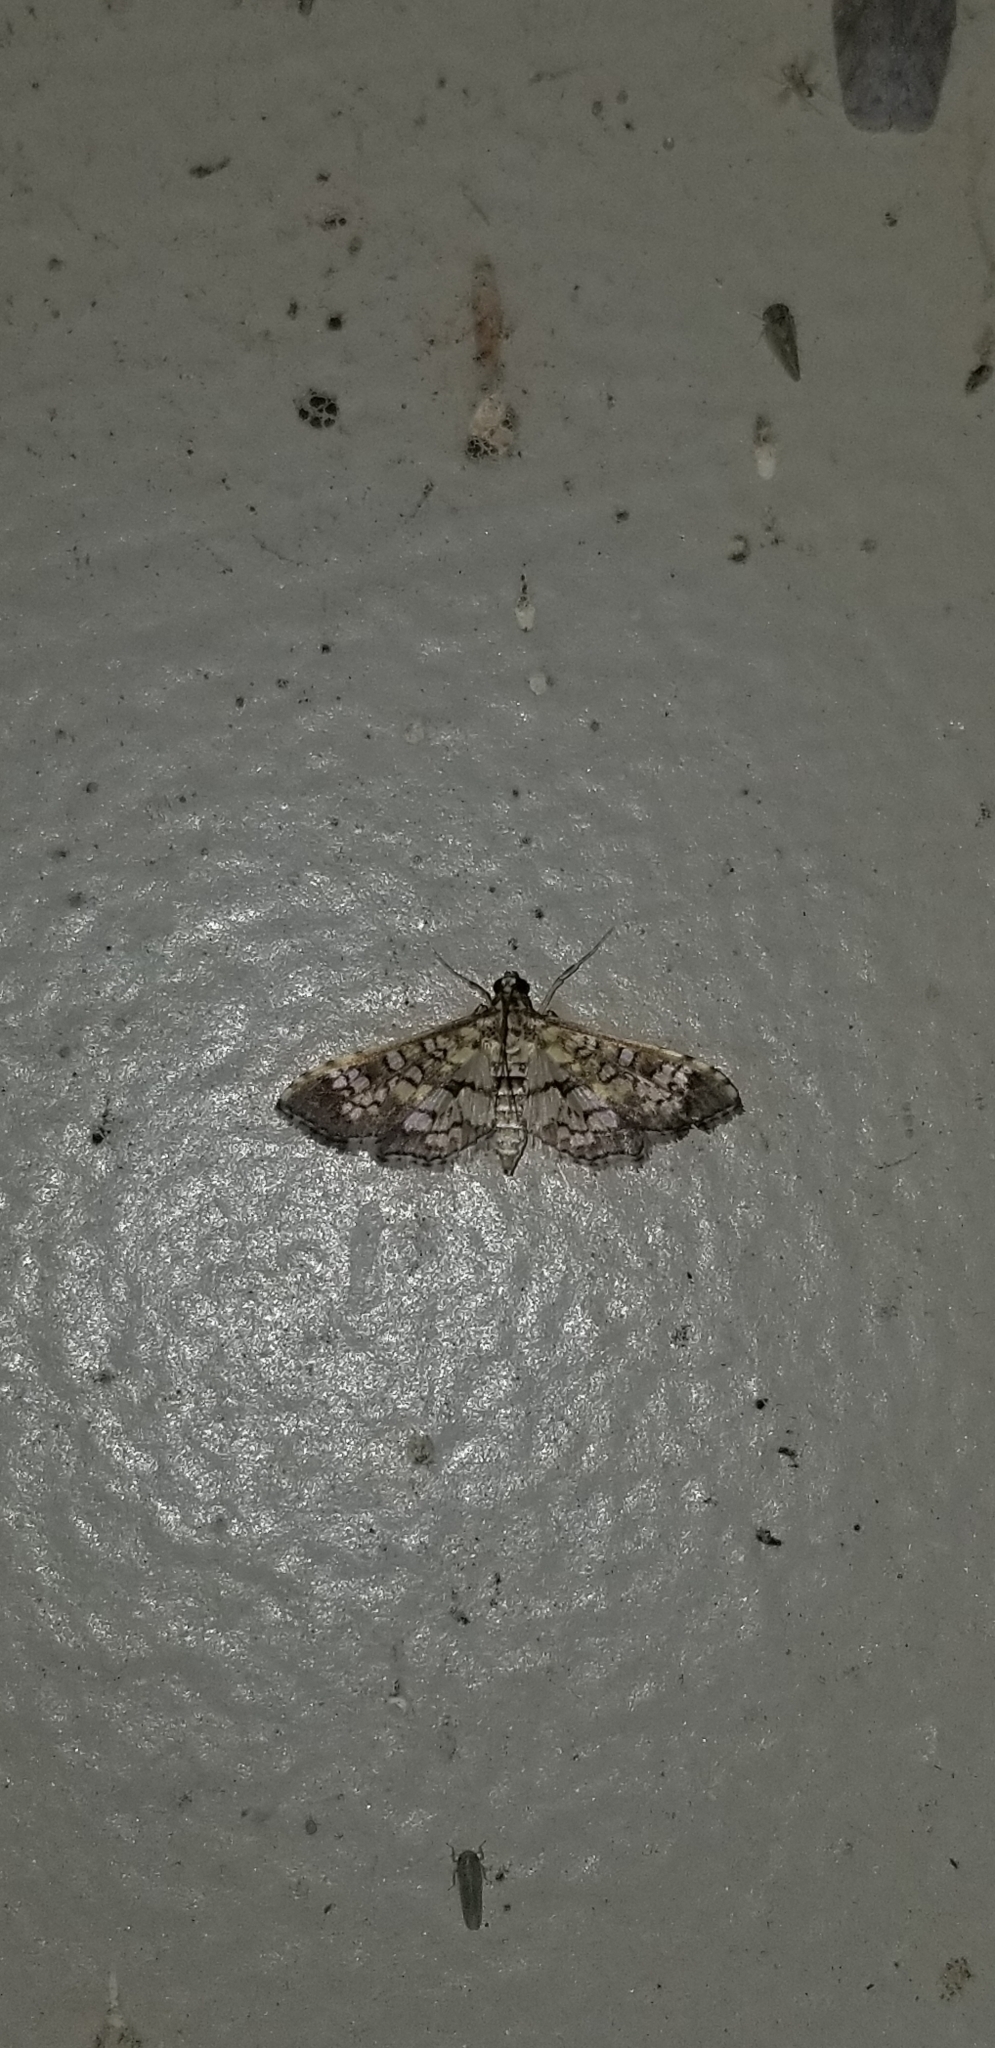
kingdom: Animalia
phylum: Arthropoda
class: Insecta
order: Lepidoptera
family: Crambidae
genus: Samea
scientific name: Samea ecclesialis
